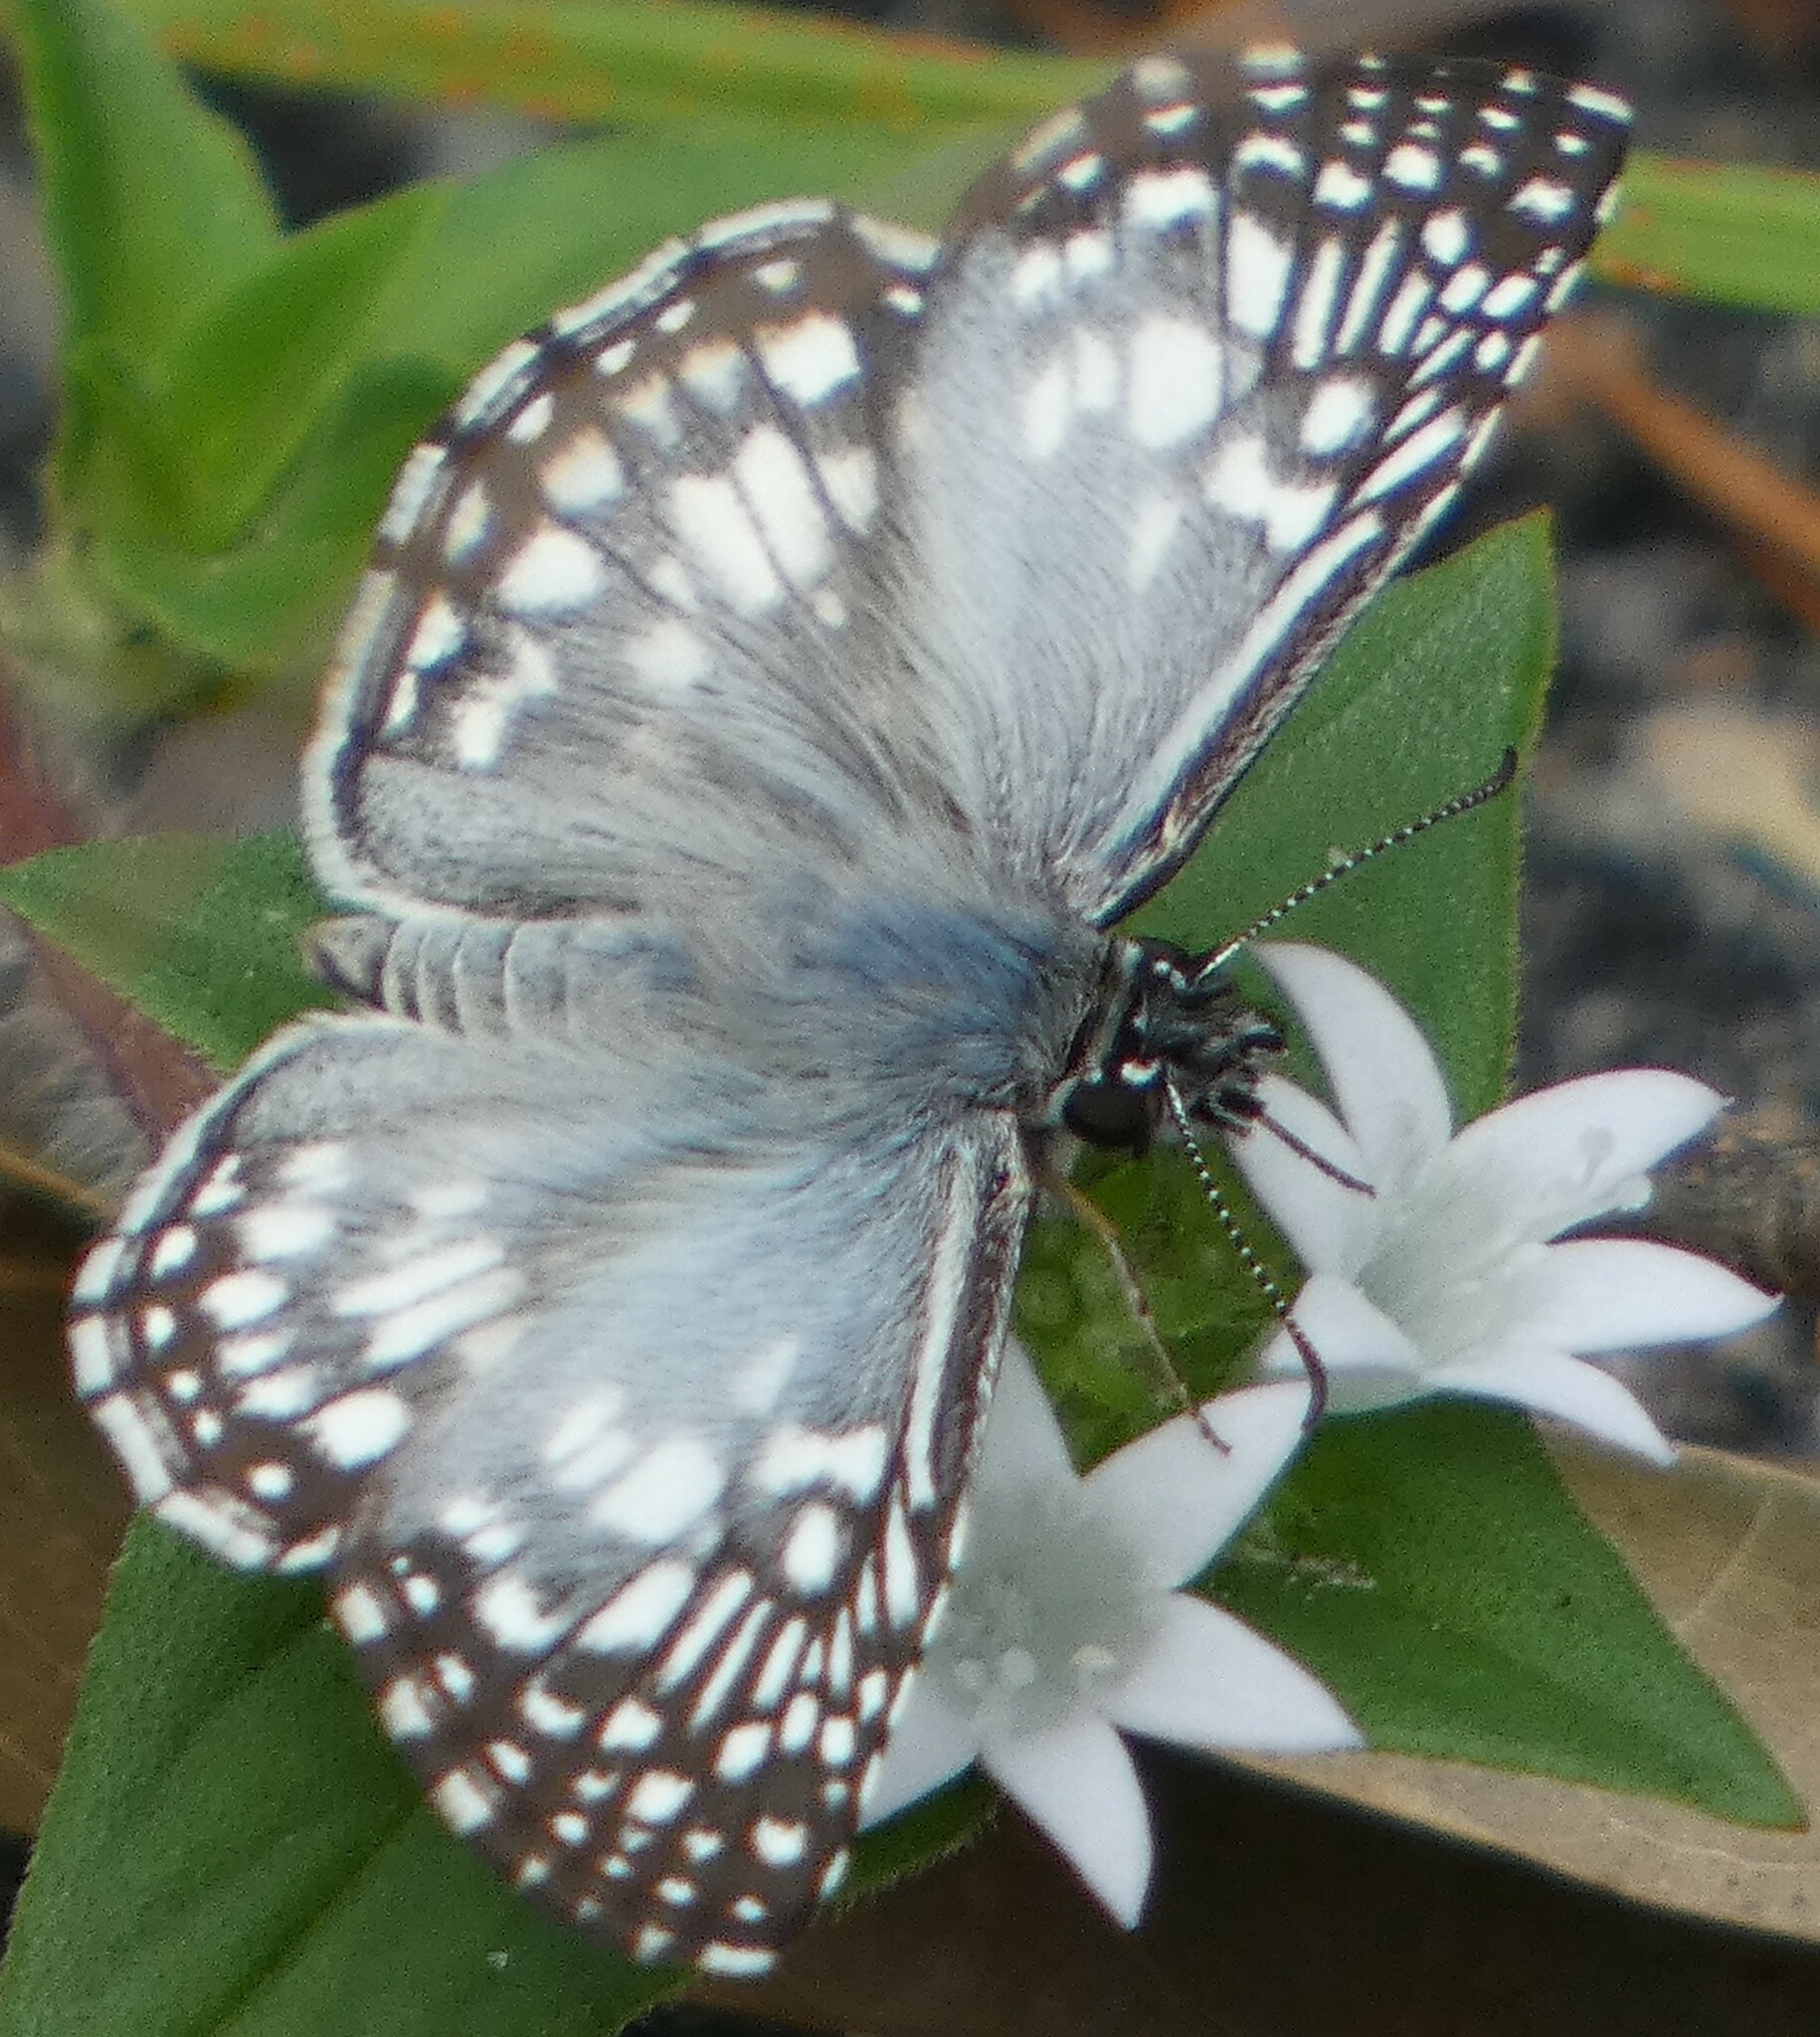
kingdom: Animalia
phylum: Arthropoda
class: Insecta
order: Lepidoptera
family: Hesperiidae
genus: Pyrgus
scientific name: Pyrgus oileus
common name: Tropical checkered-skipper
